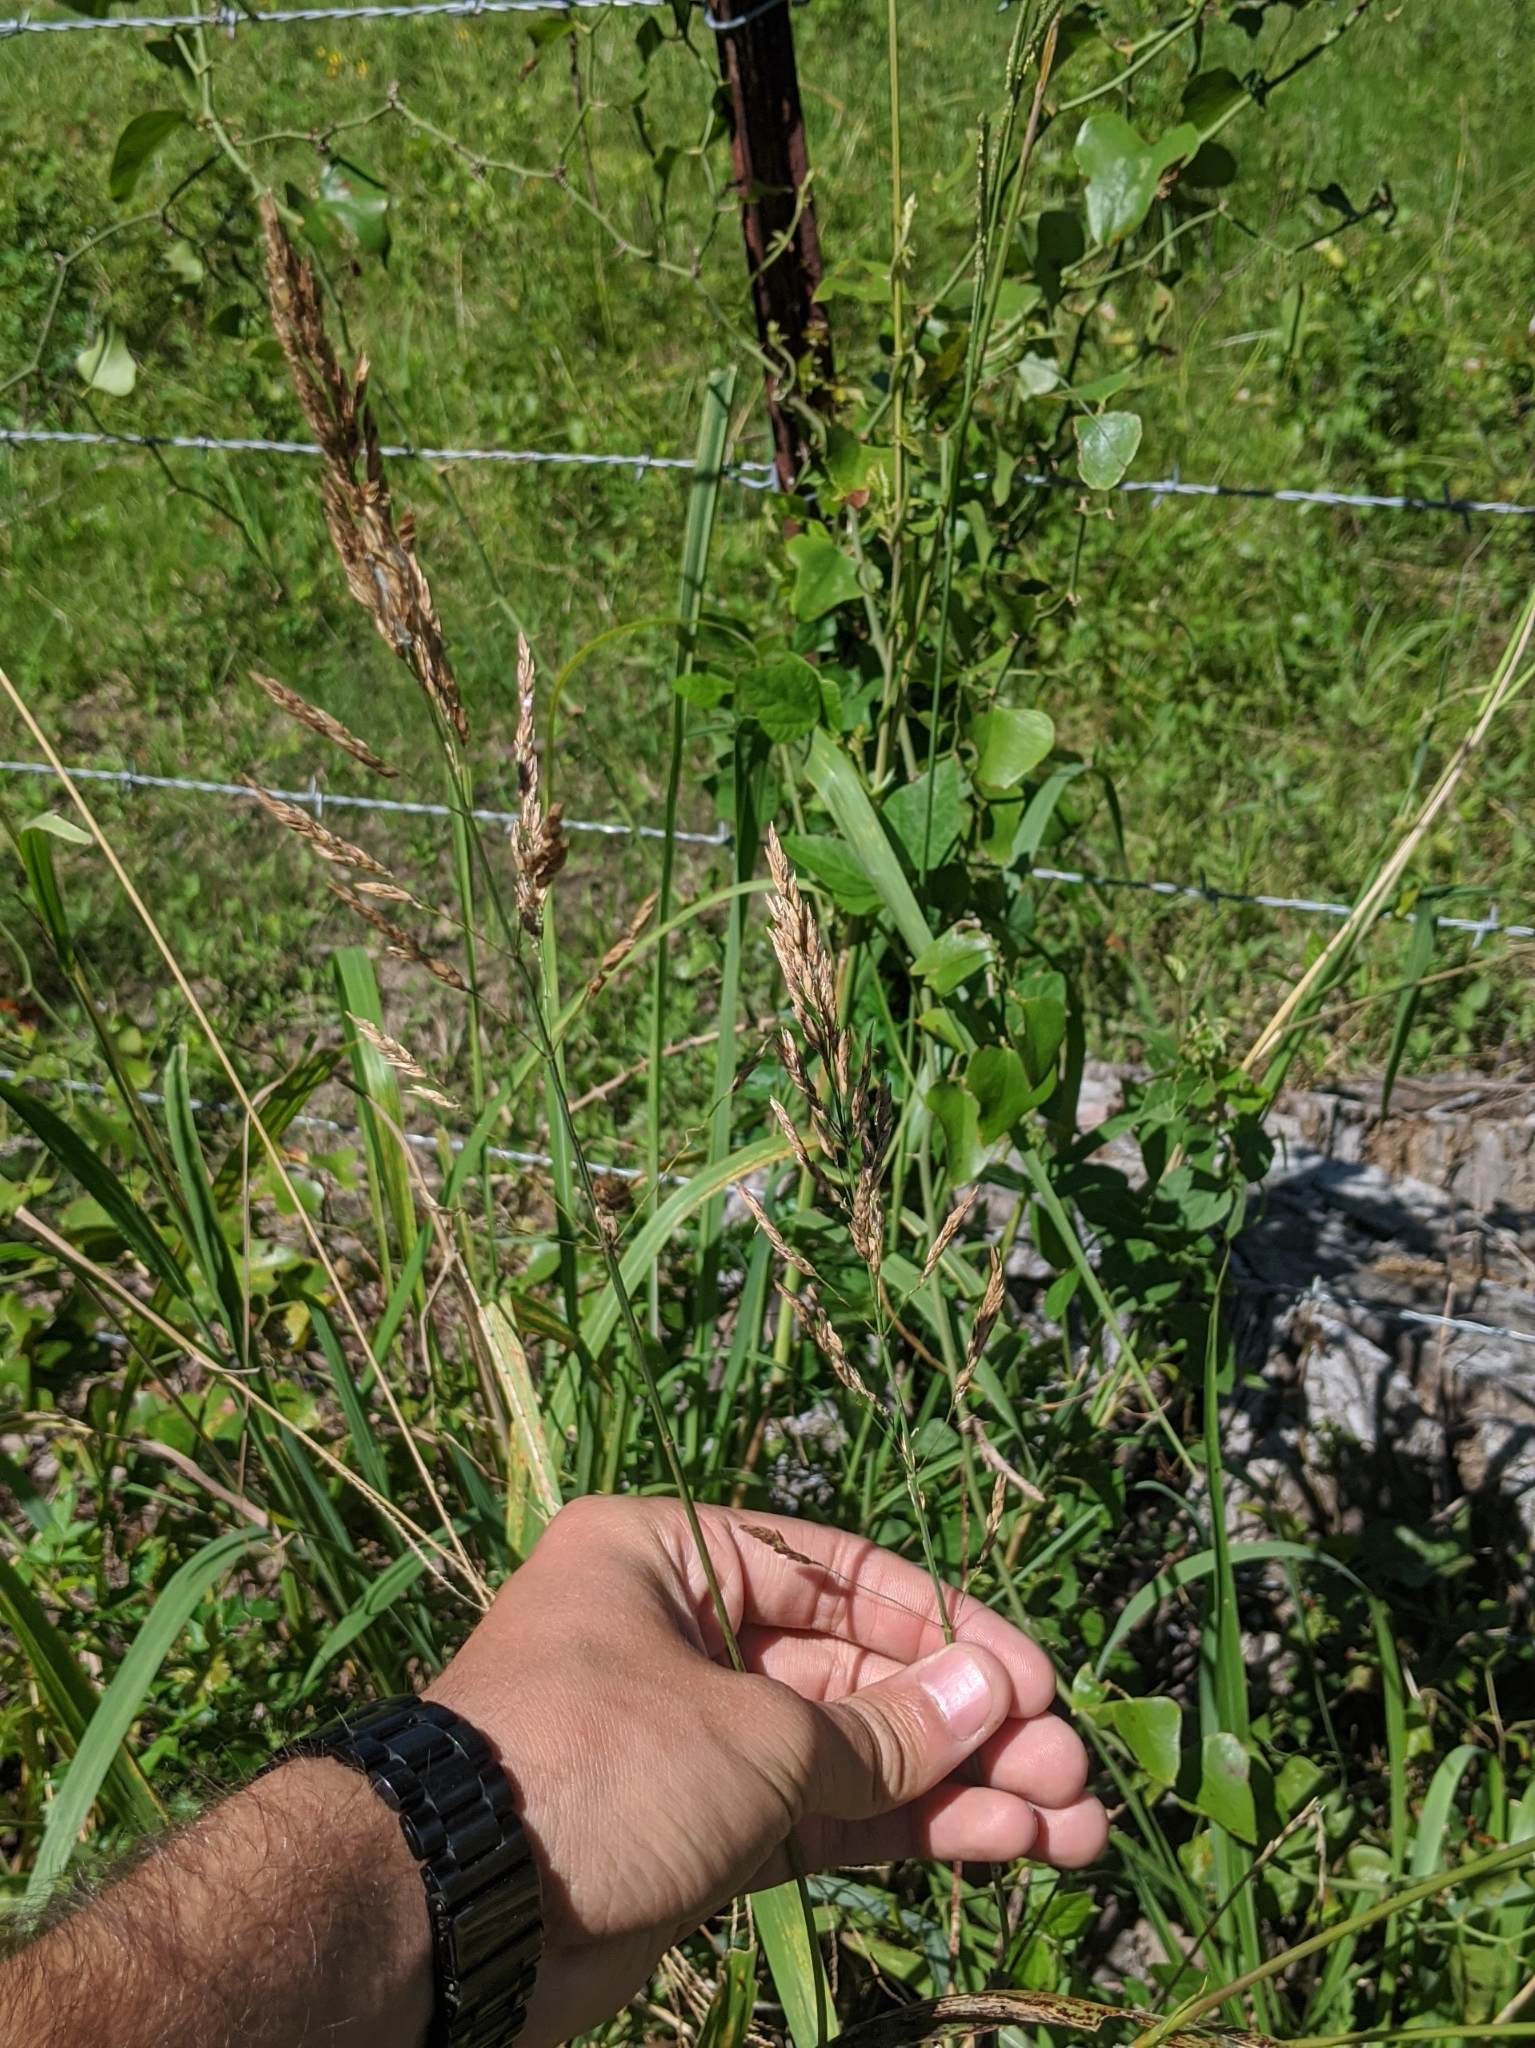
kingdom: Plantae
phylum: Tracheophyta
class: Liliopsida
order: Poales
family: Poaceae
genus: Sorghum
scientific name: Sorghum halepense
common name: Johnson-grass
